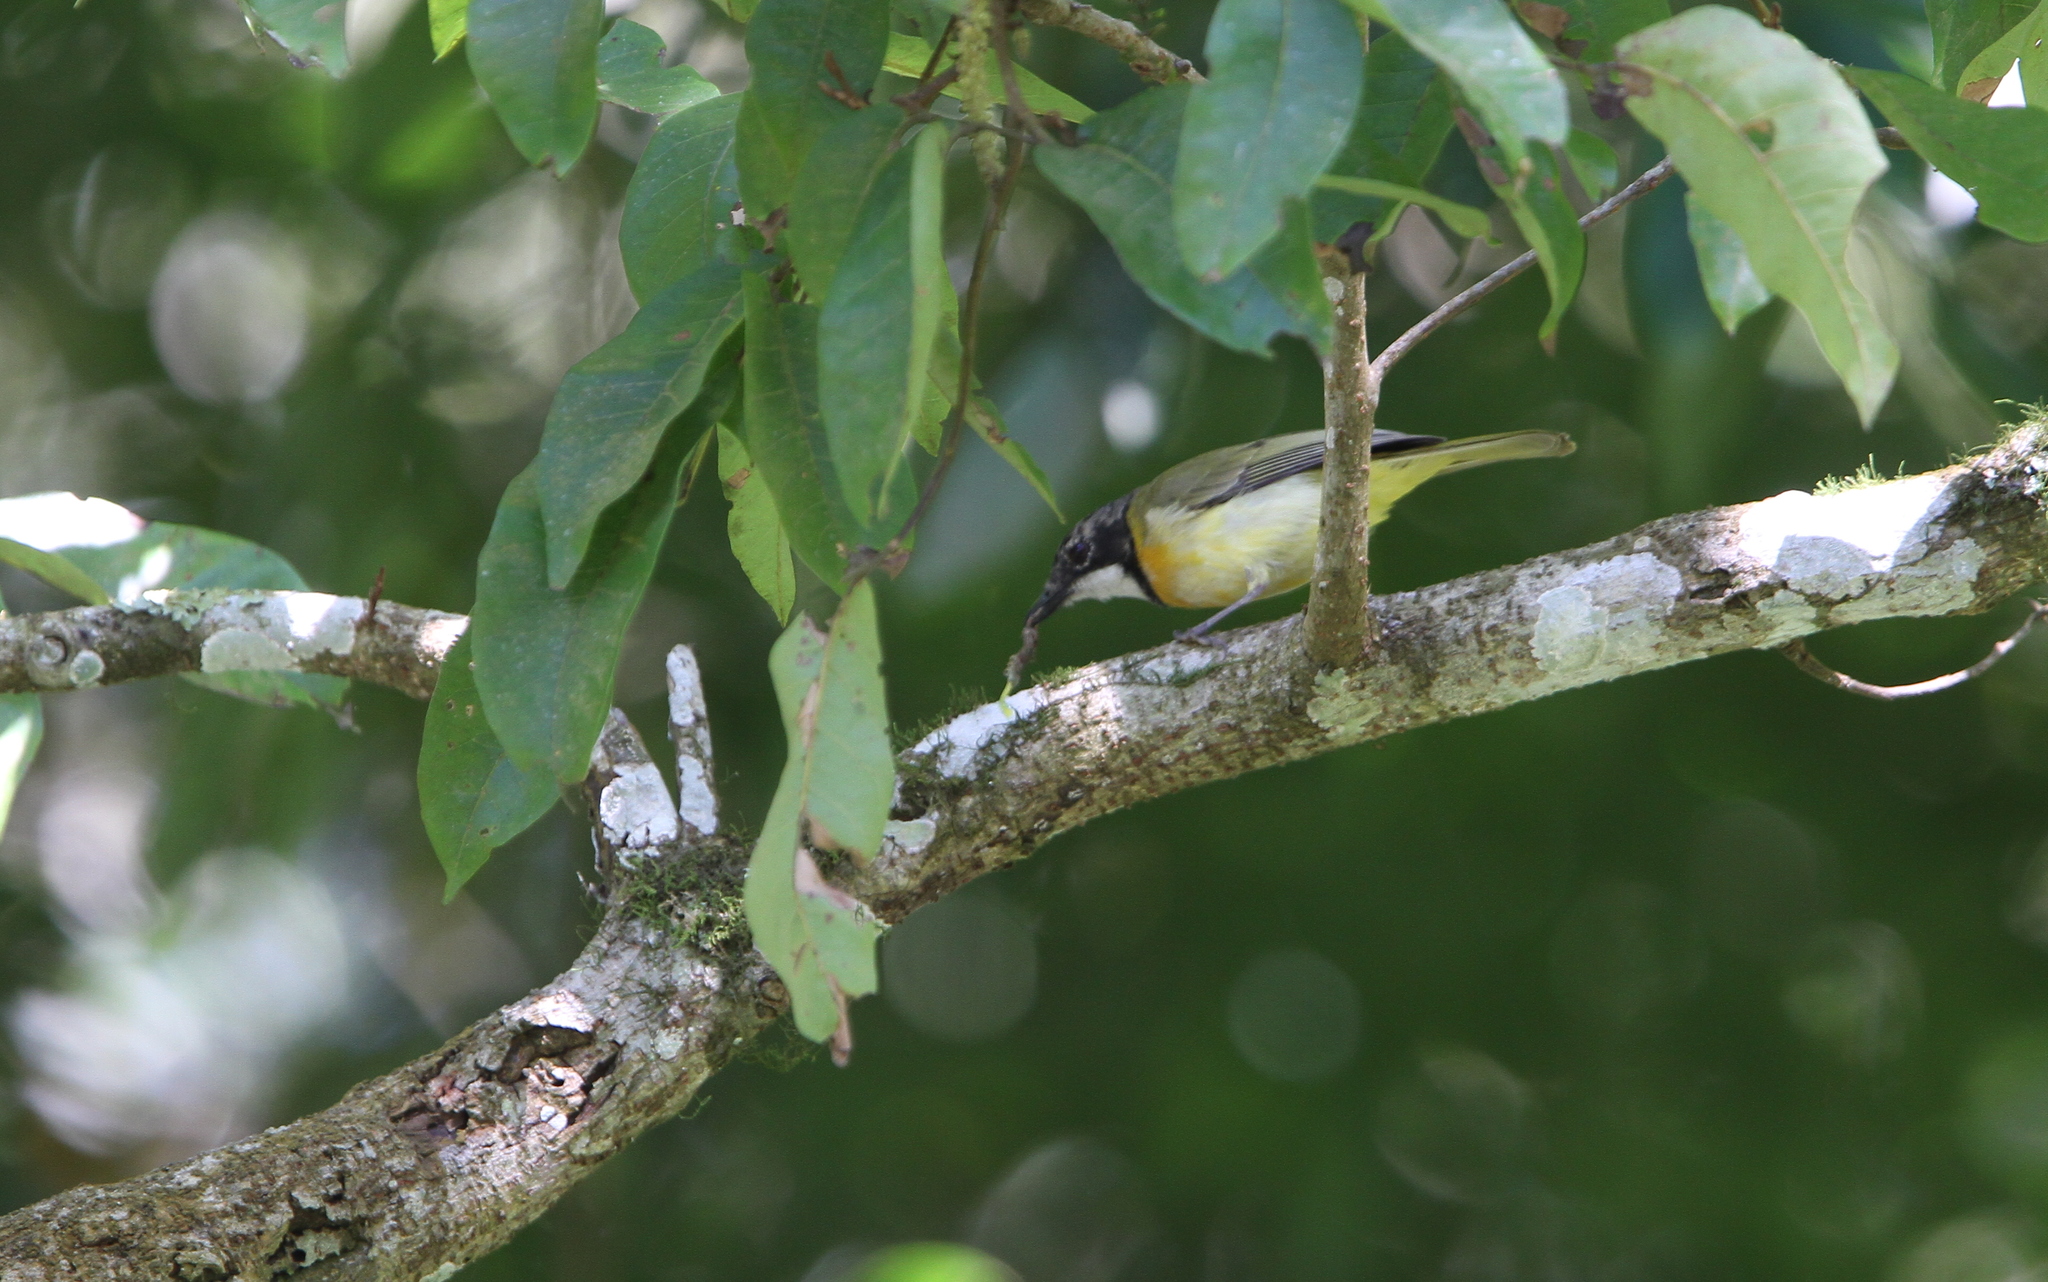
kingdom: Animalia
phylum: Chordata
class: Aves
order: Passeriformes
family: Pachycephalidae
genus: Pachycephala
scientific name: Pachycephala fulvotincta
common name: Rusty-breasted whistler
